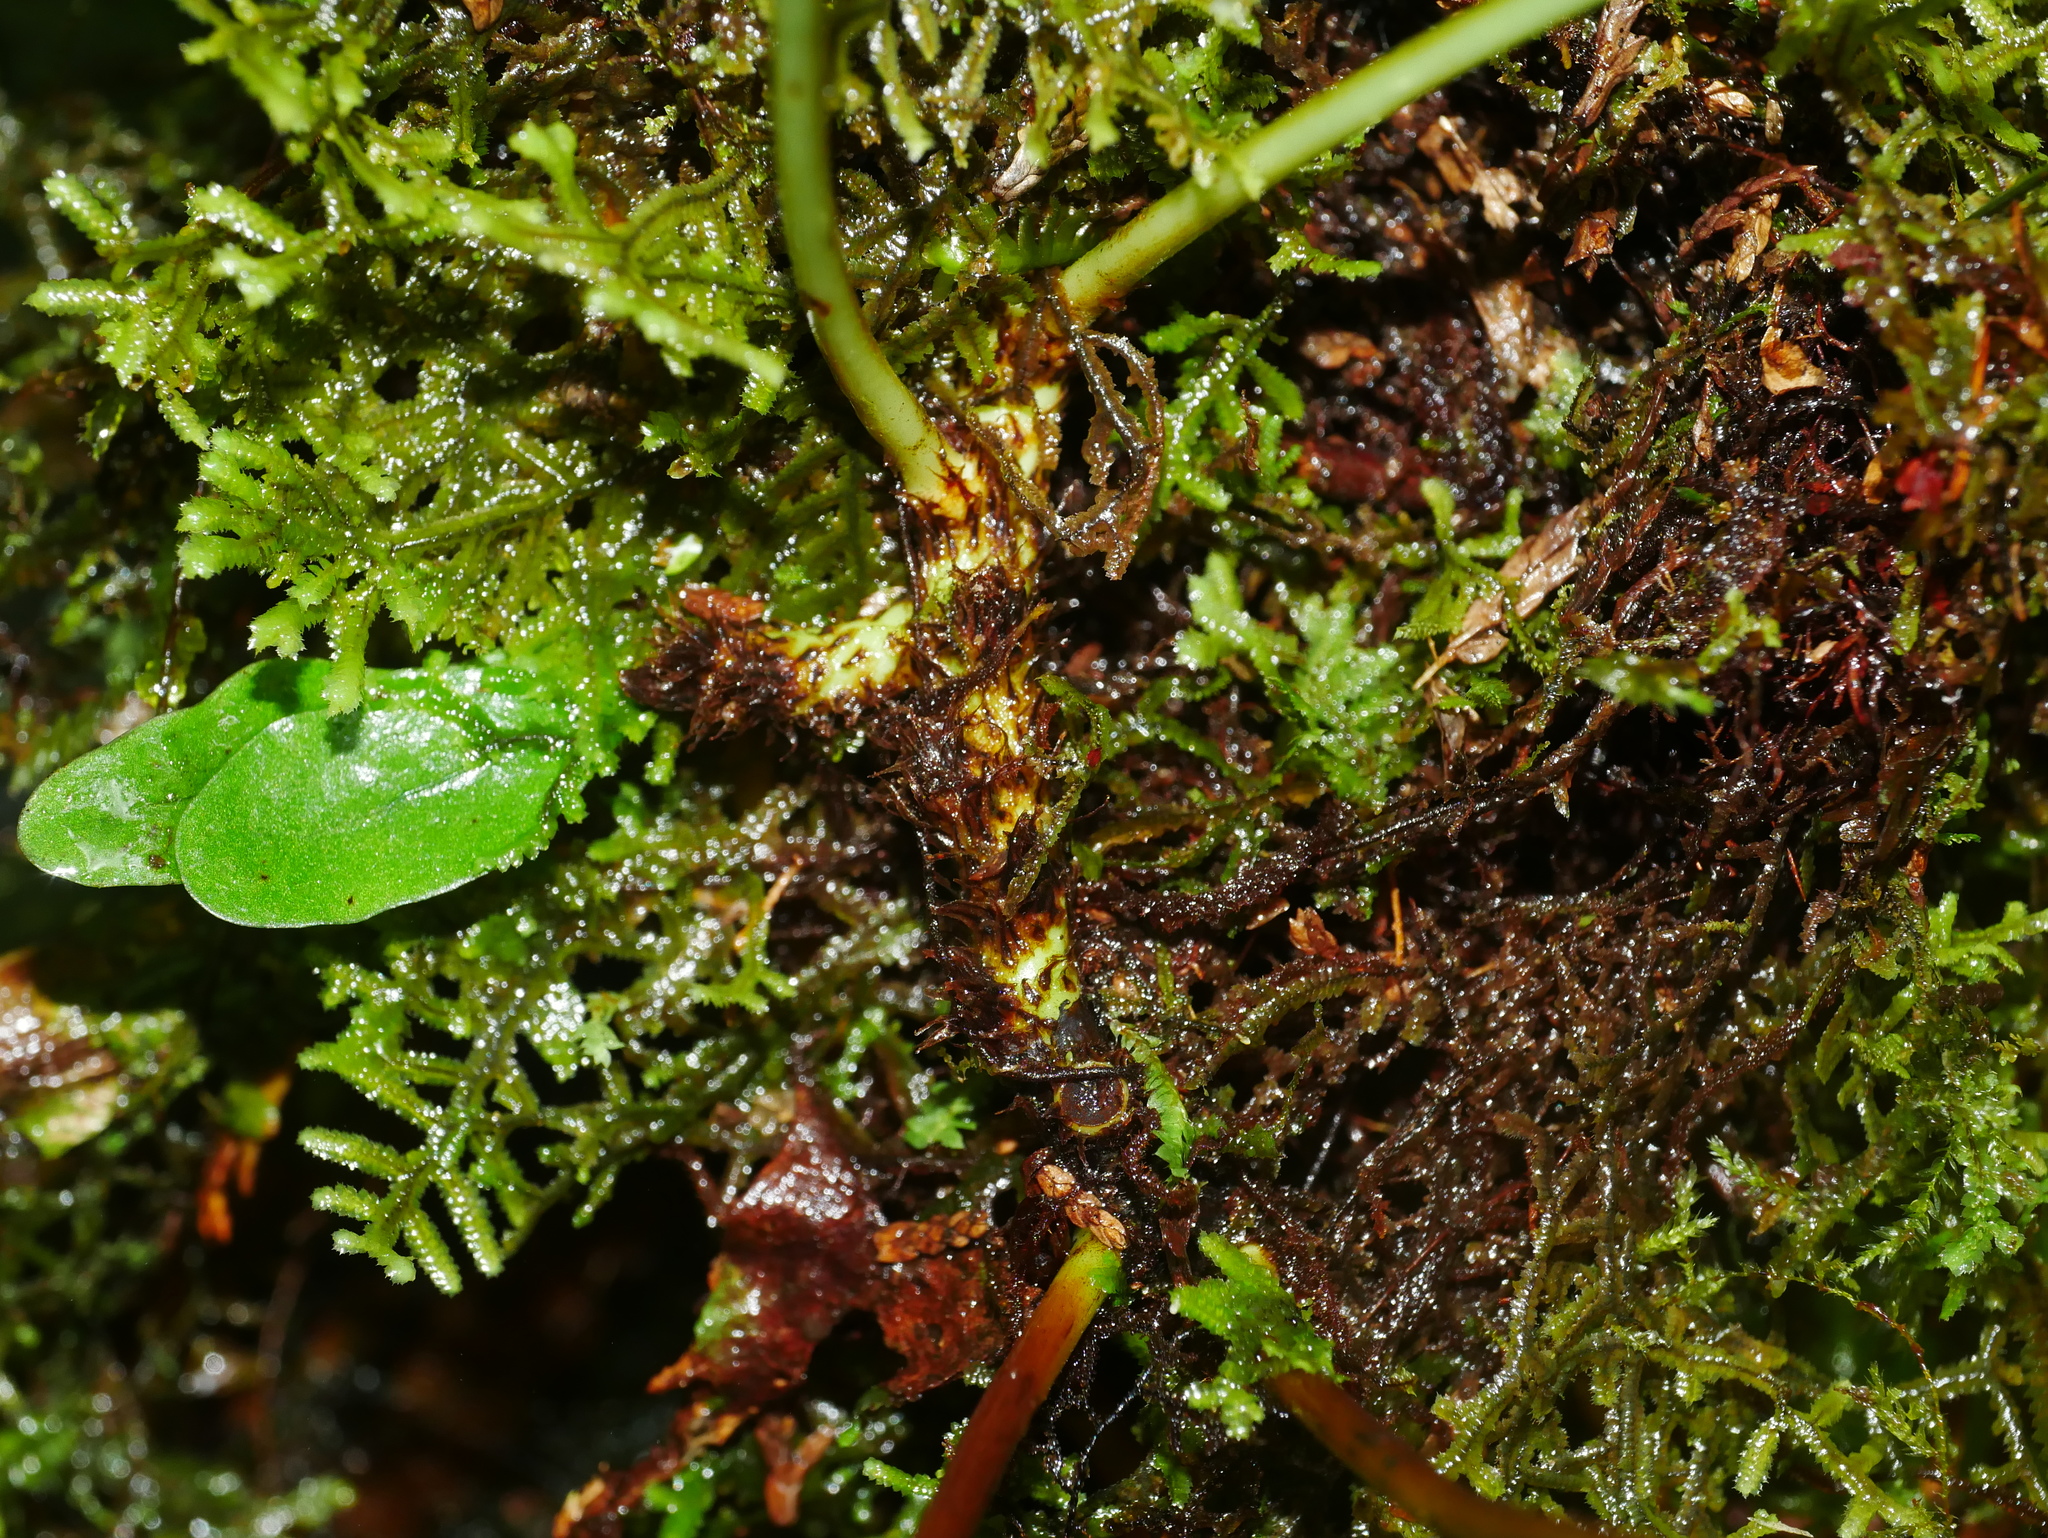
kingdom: Plantae
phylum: Tracheophyta
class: Polypodiopsida
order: Polypodiales
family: Polypodiaceae
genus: Lepisorus
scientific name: Lepisorus obscurevenulosus
